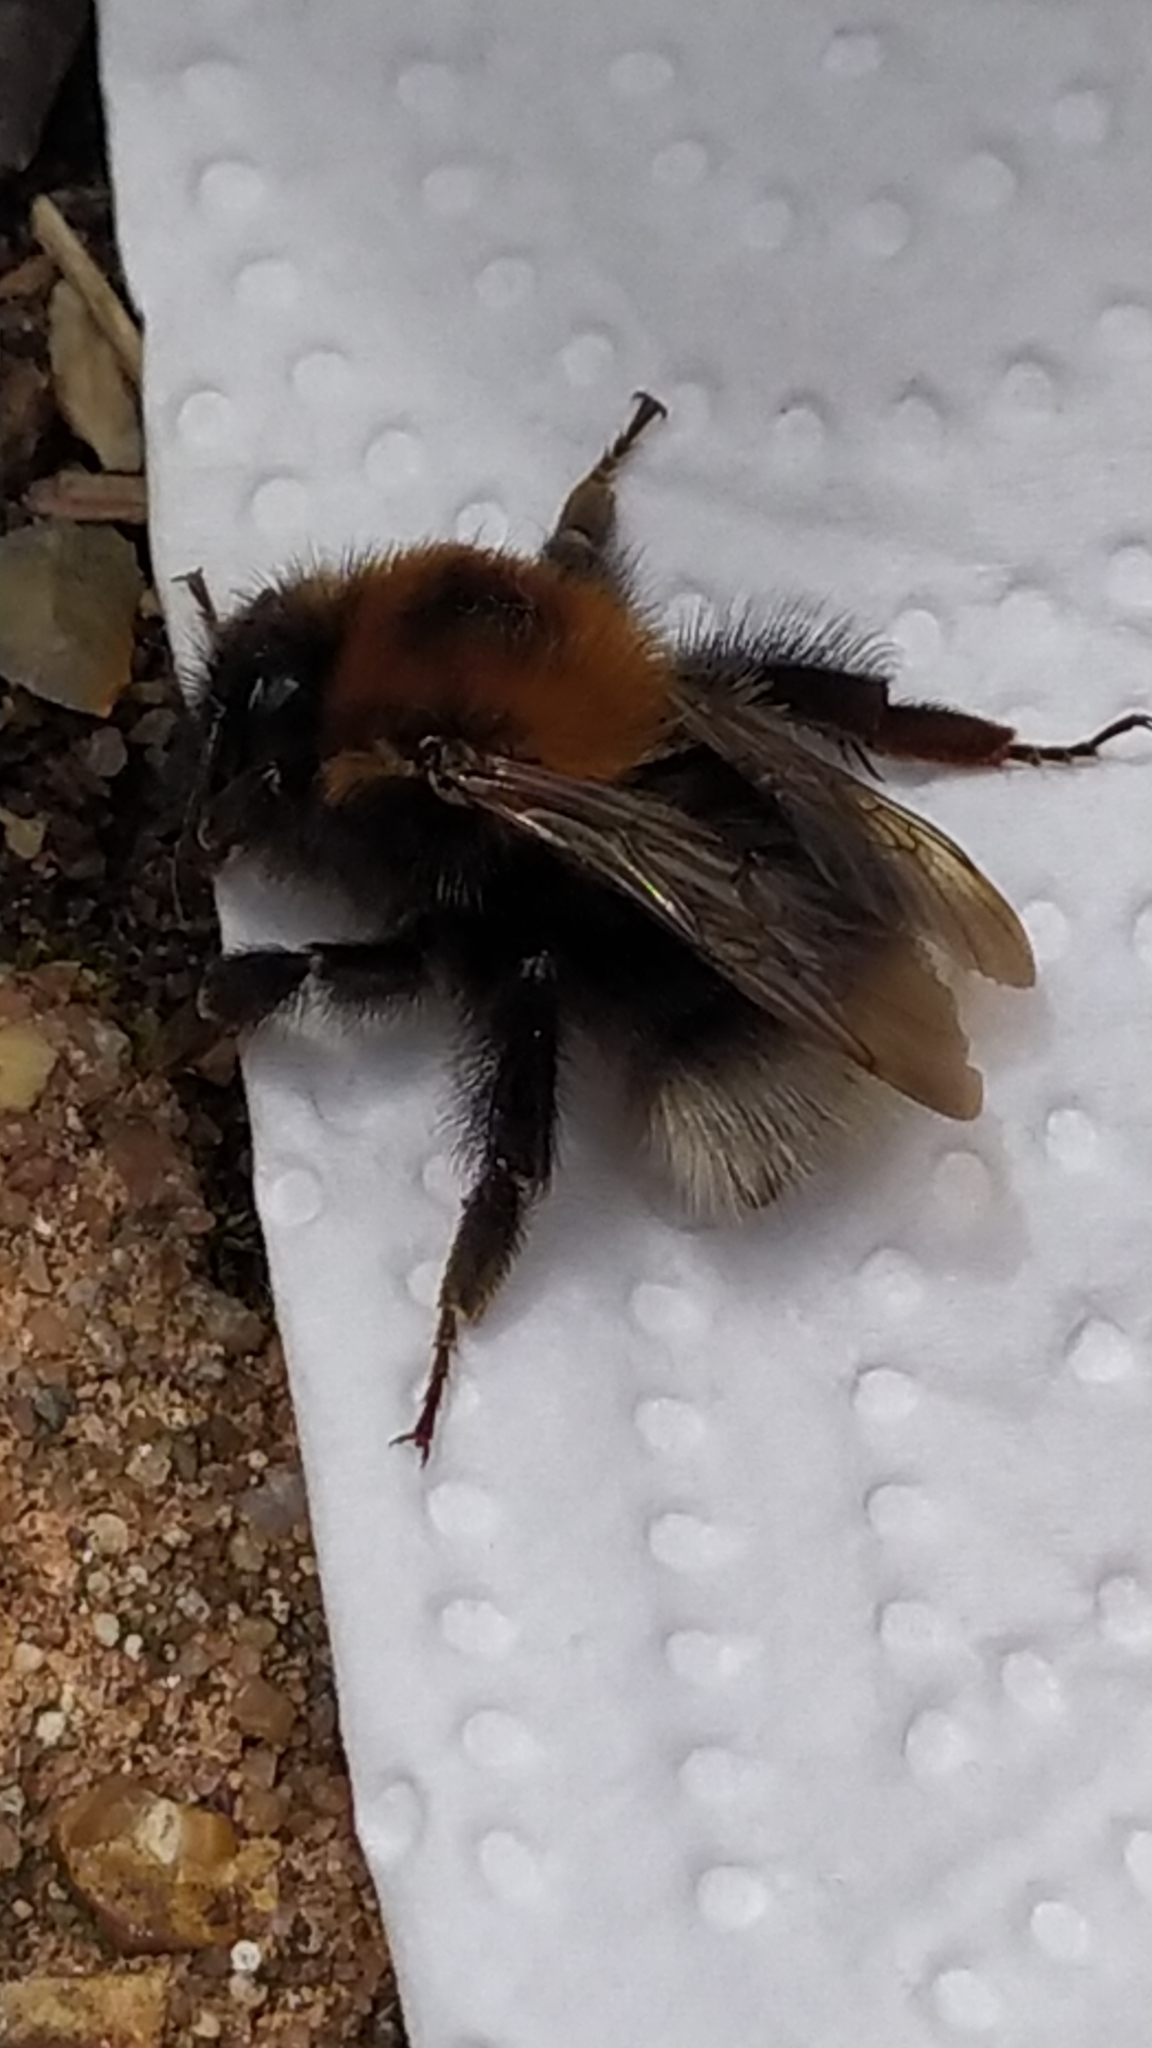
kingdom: Animalia
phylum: Arthropoda
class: Insecta
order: Hymenoptera
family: Apidae
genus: Bombus
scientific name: Bombus hypnorum
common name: New garden bumblebee
